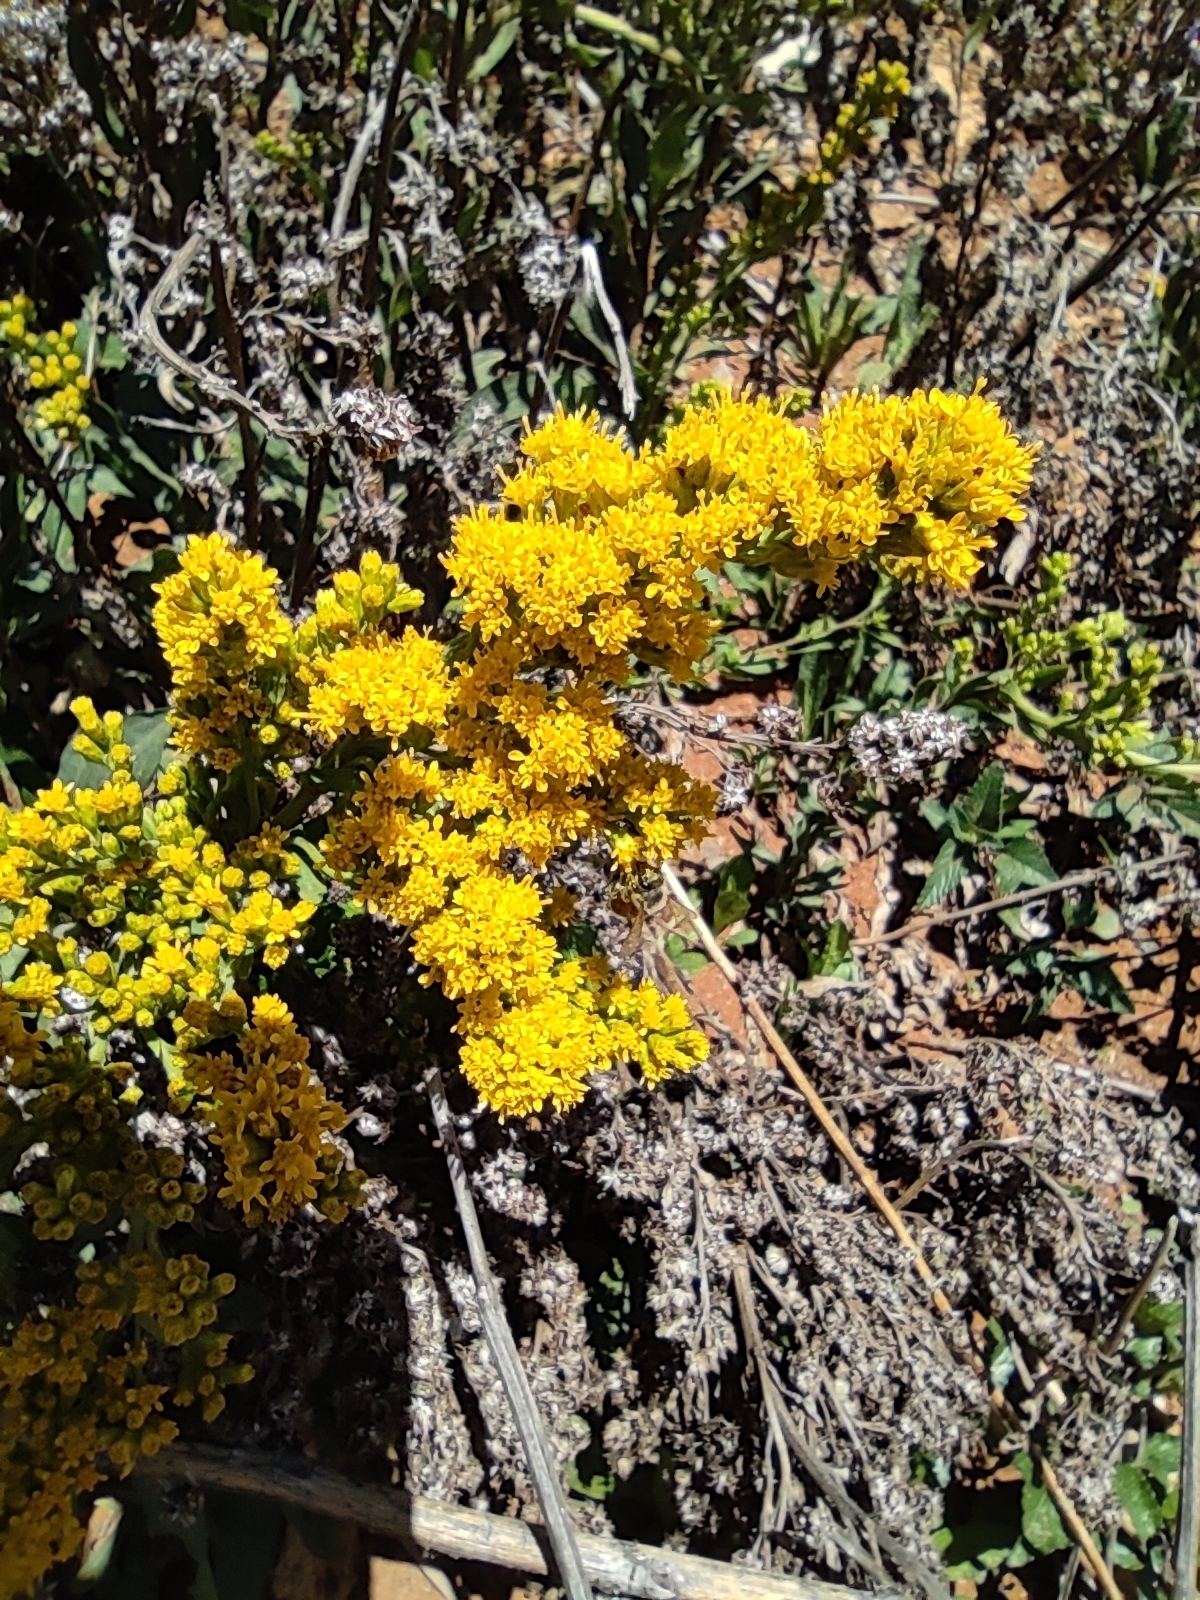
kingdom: Plantae
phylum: Tracheophyta
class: Magnoliopsida
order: Asterales
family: Asteraceae
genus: Solidago
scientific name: Solidago hintoniorum
